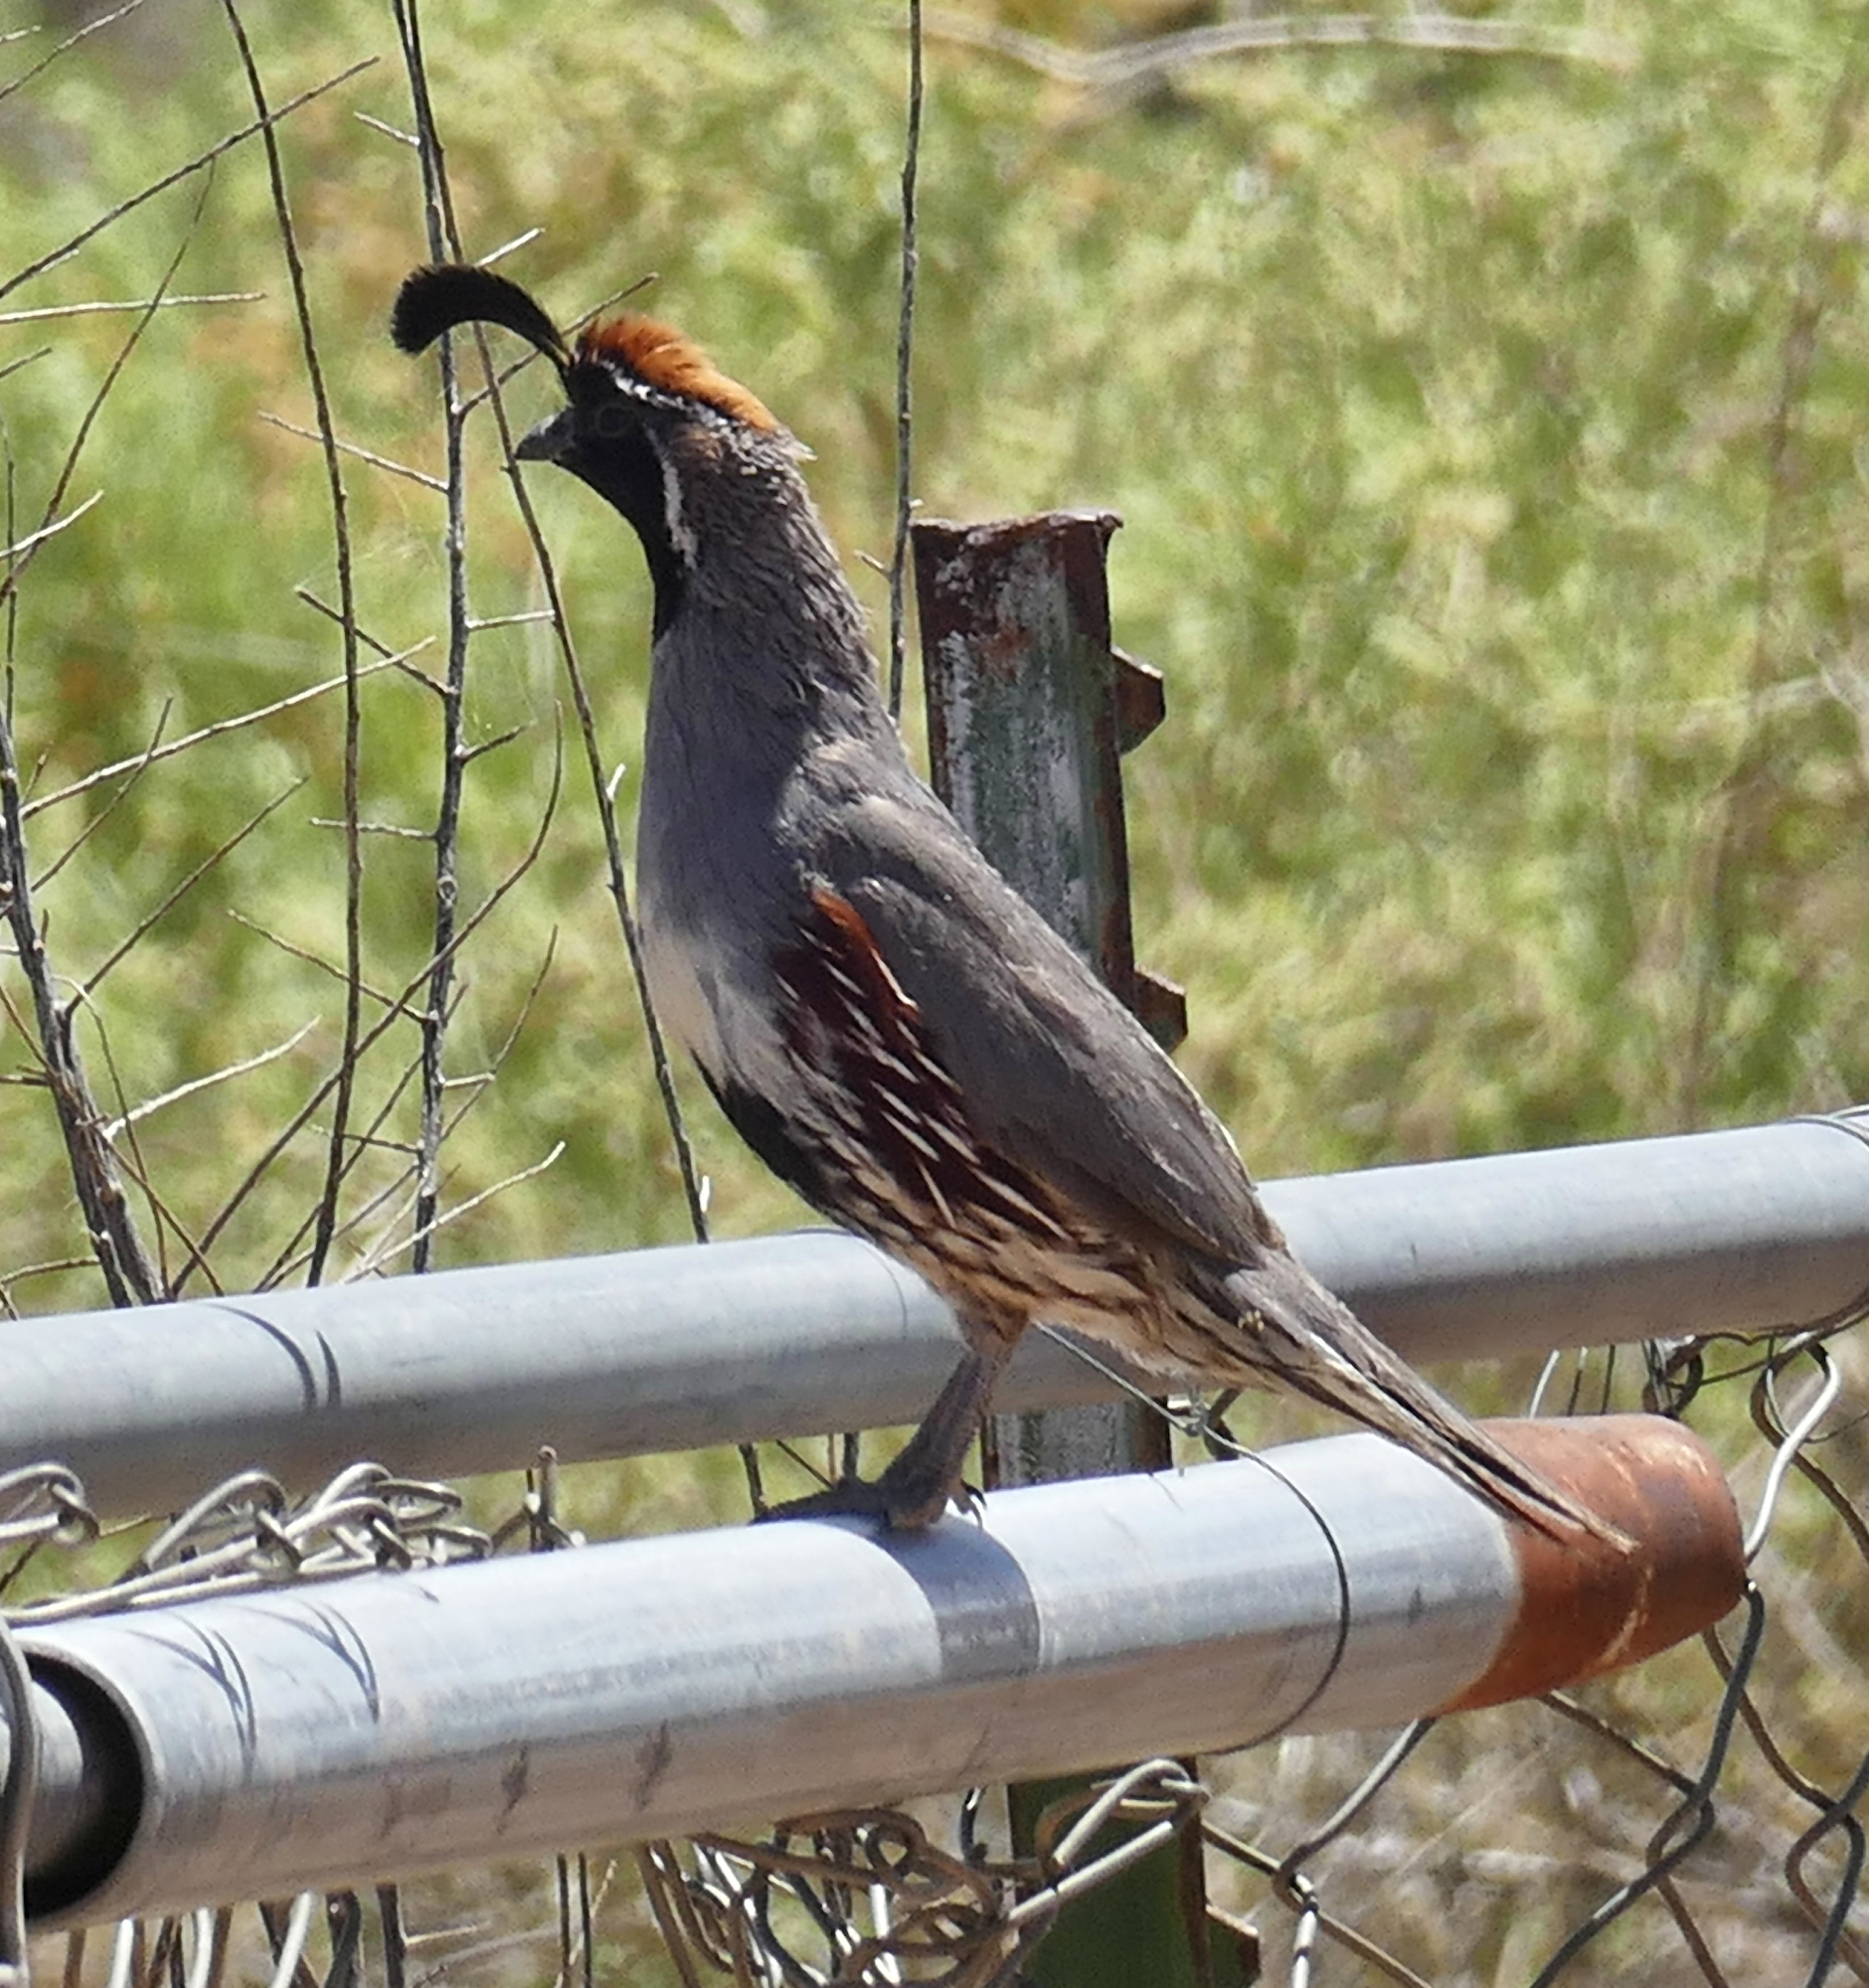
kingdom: Animalia
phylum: Chordata
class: Aves
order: Galliformes
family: Odontophoridae
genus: Callipepla
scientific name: Callipepla gambelii
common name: Gambel's quail
